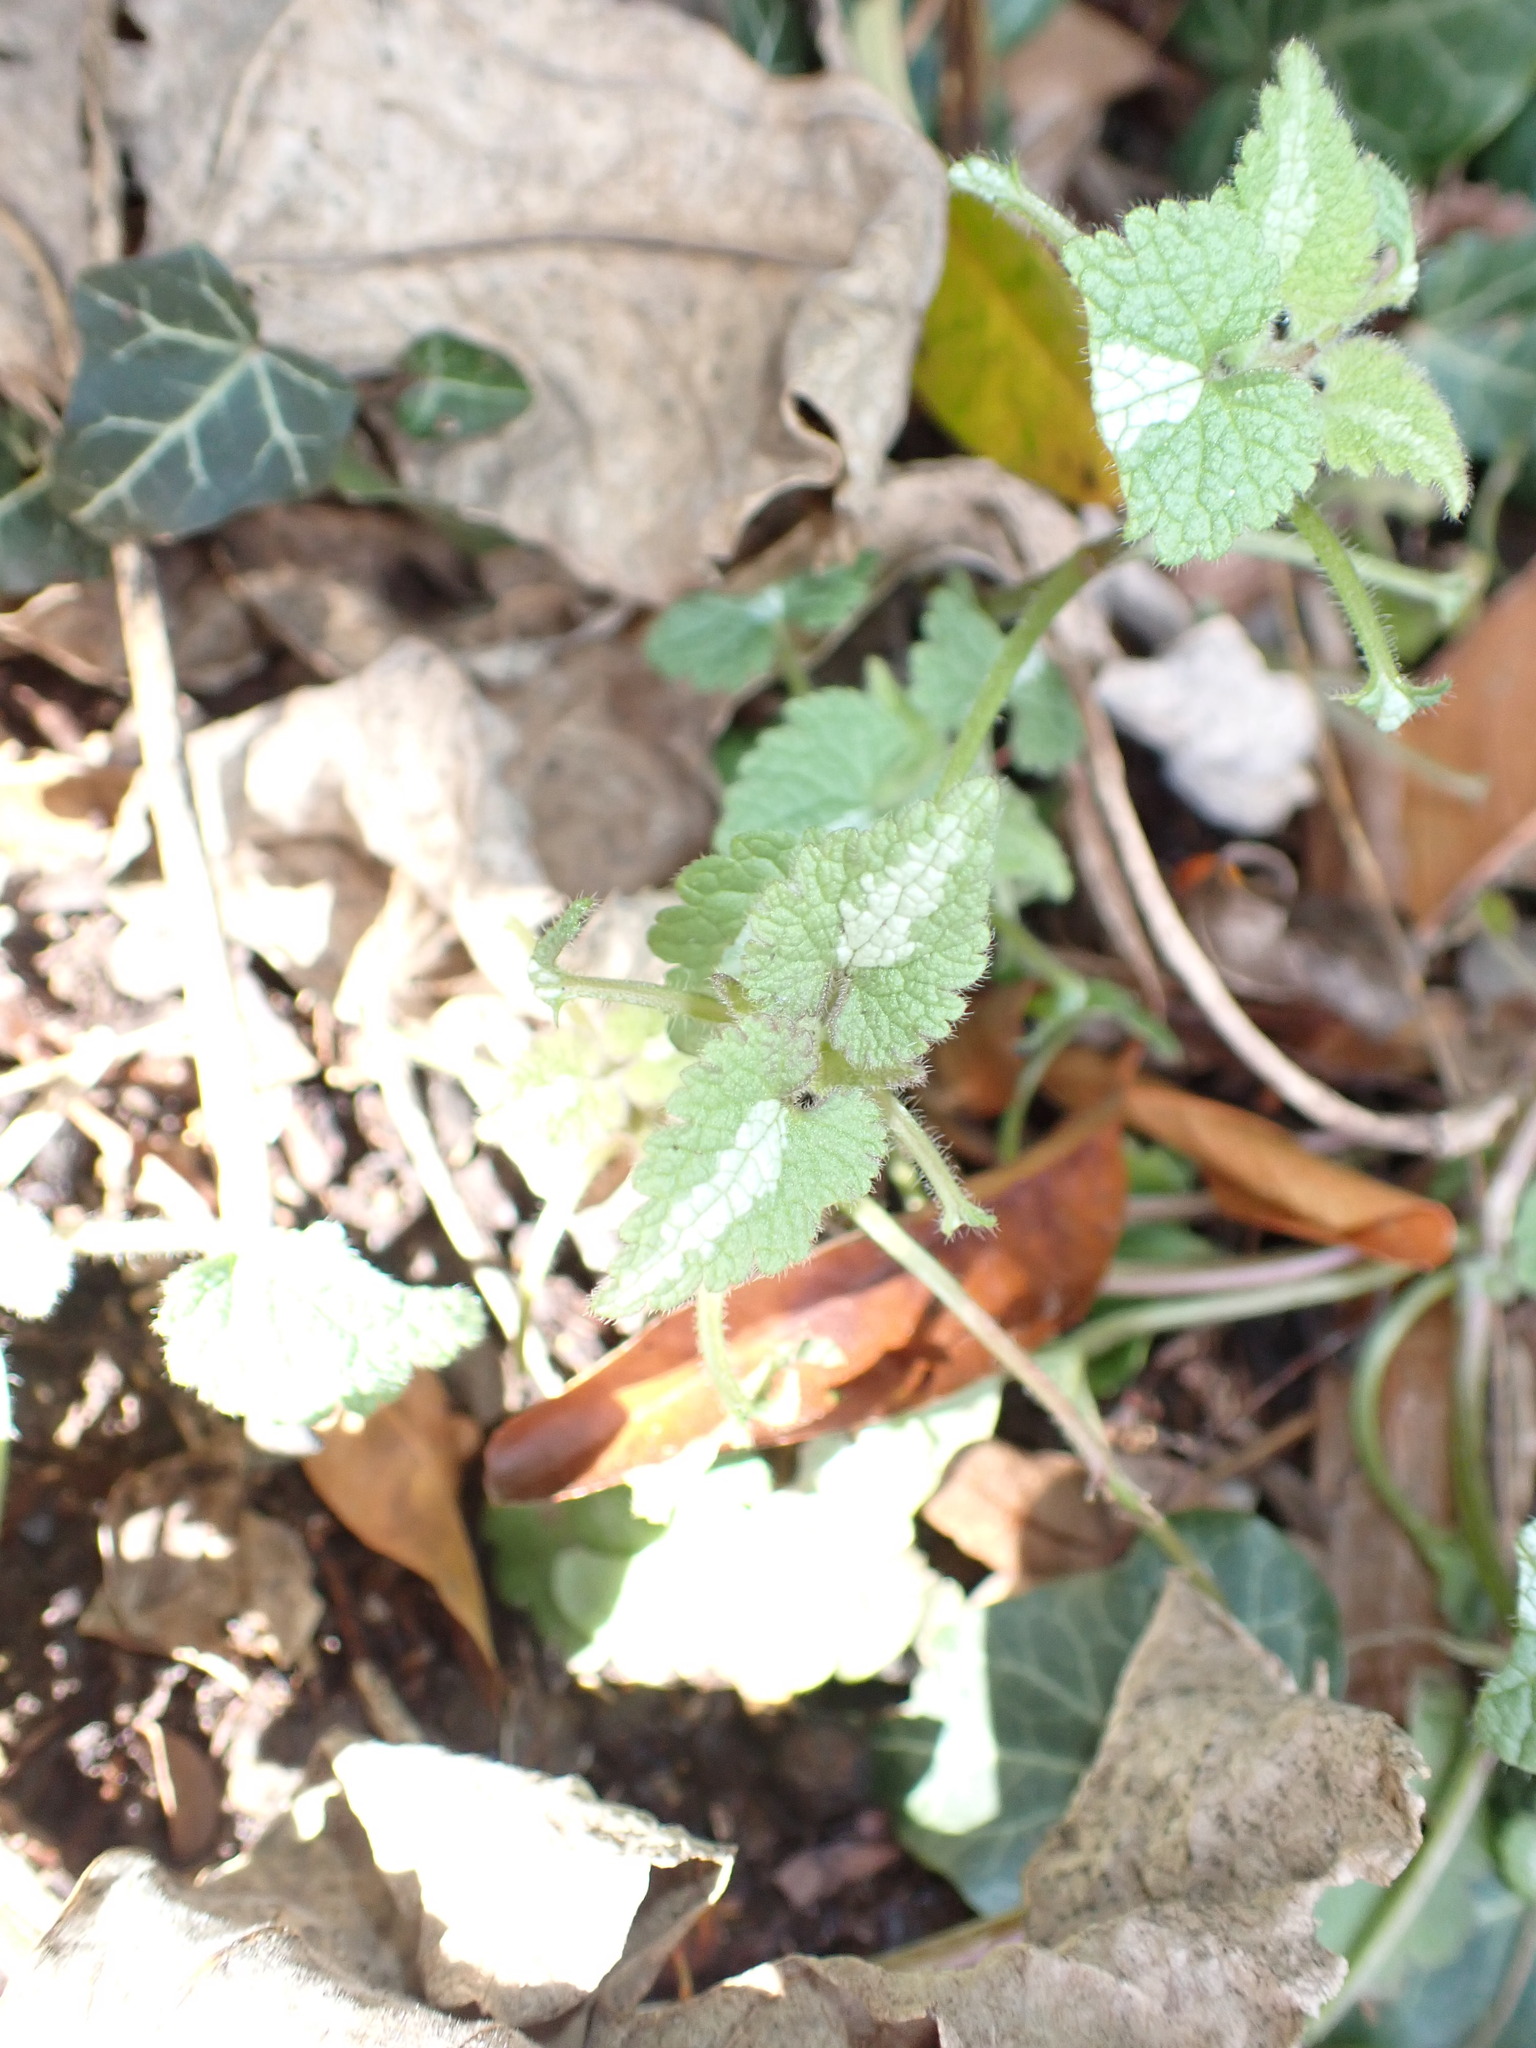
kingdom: Plantae
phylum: Tracheophyta
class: Magnoliopsida
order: Lamiales
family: Lamiaceae
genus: Lamium
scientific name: Lamium maculatum
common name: Spotted dead-nettle
